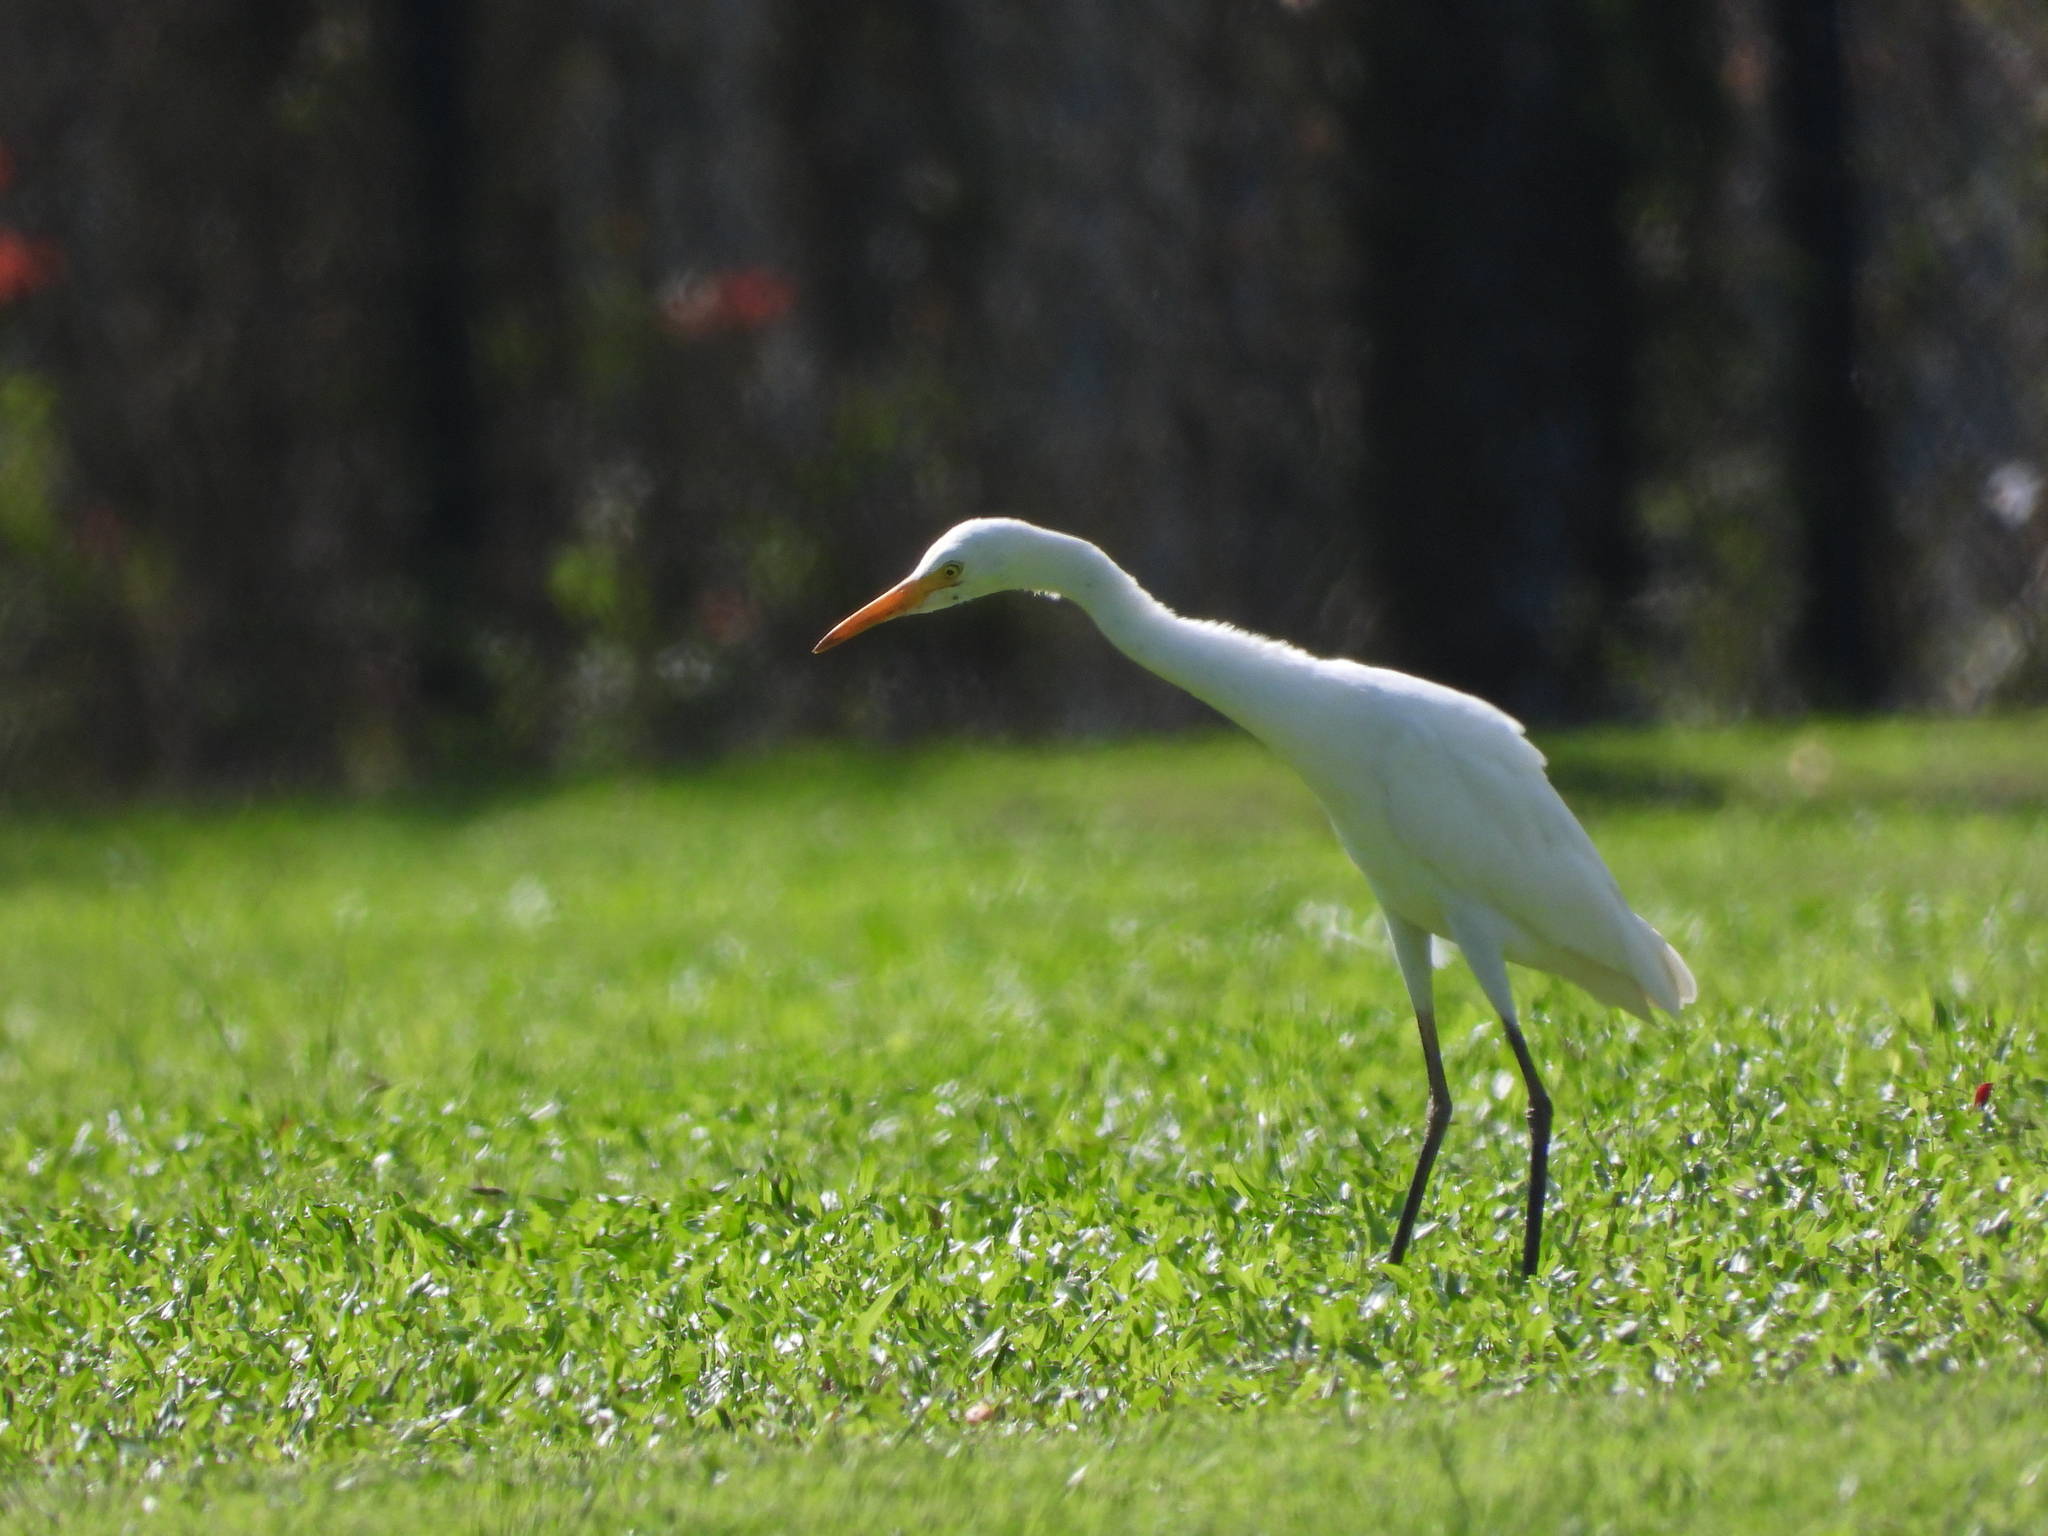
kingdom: Animalia
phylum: Chordata
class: Aves
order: Pelecaniformes
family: Ardeidae
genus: Egretta
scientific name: Egretta intermedia
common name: Intermediate egret
